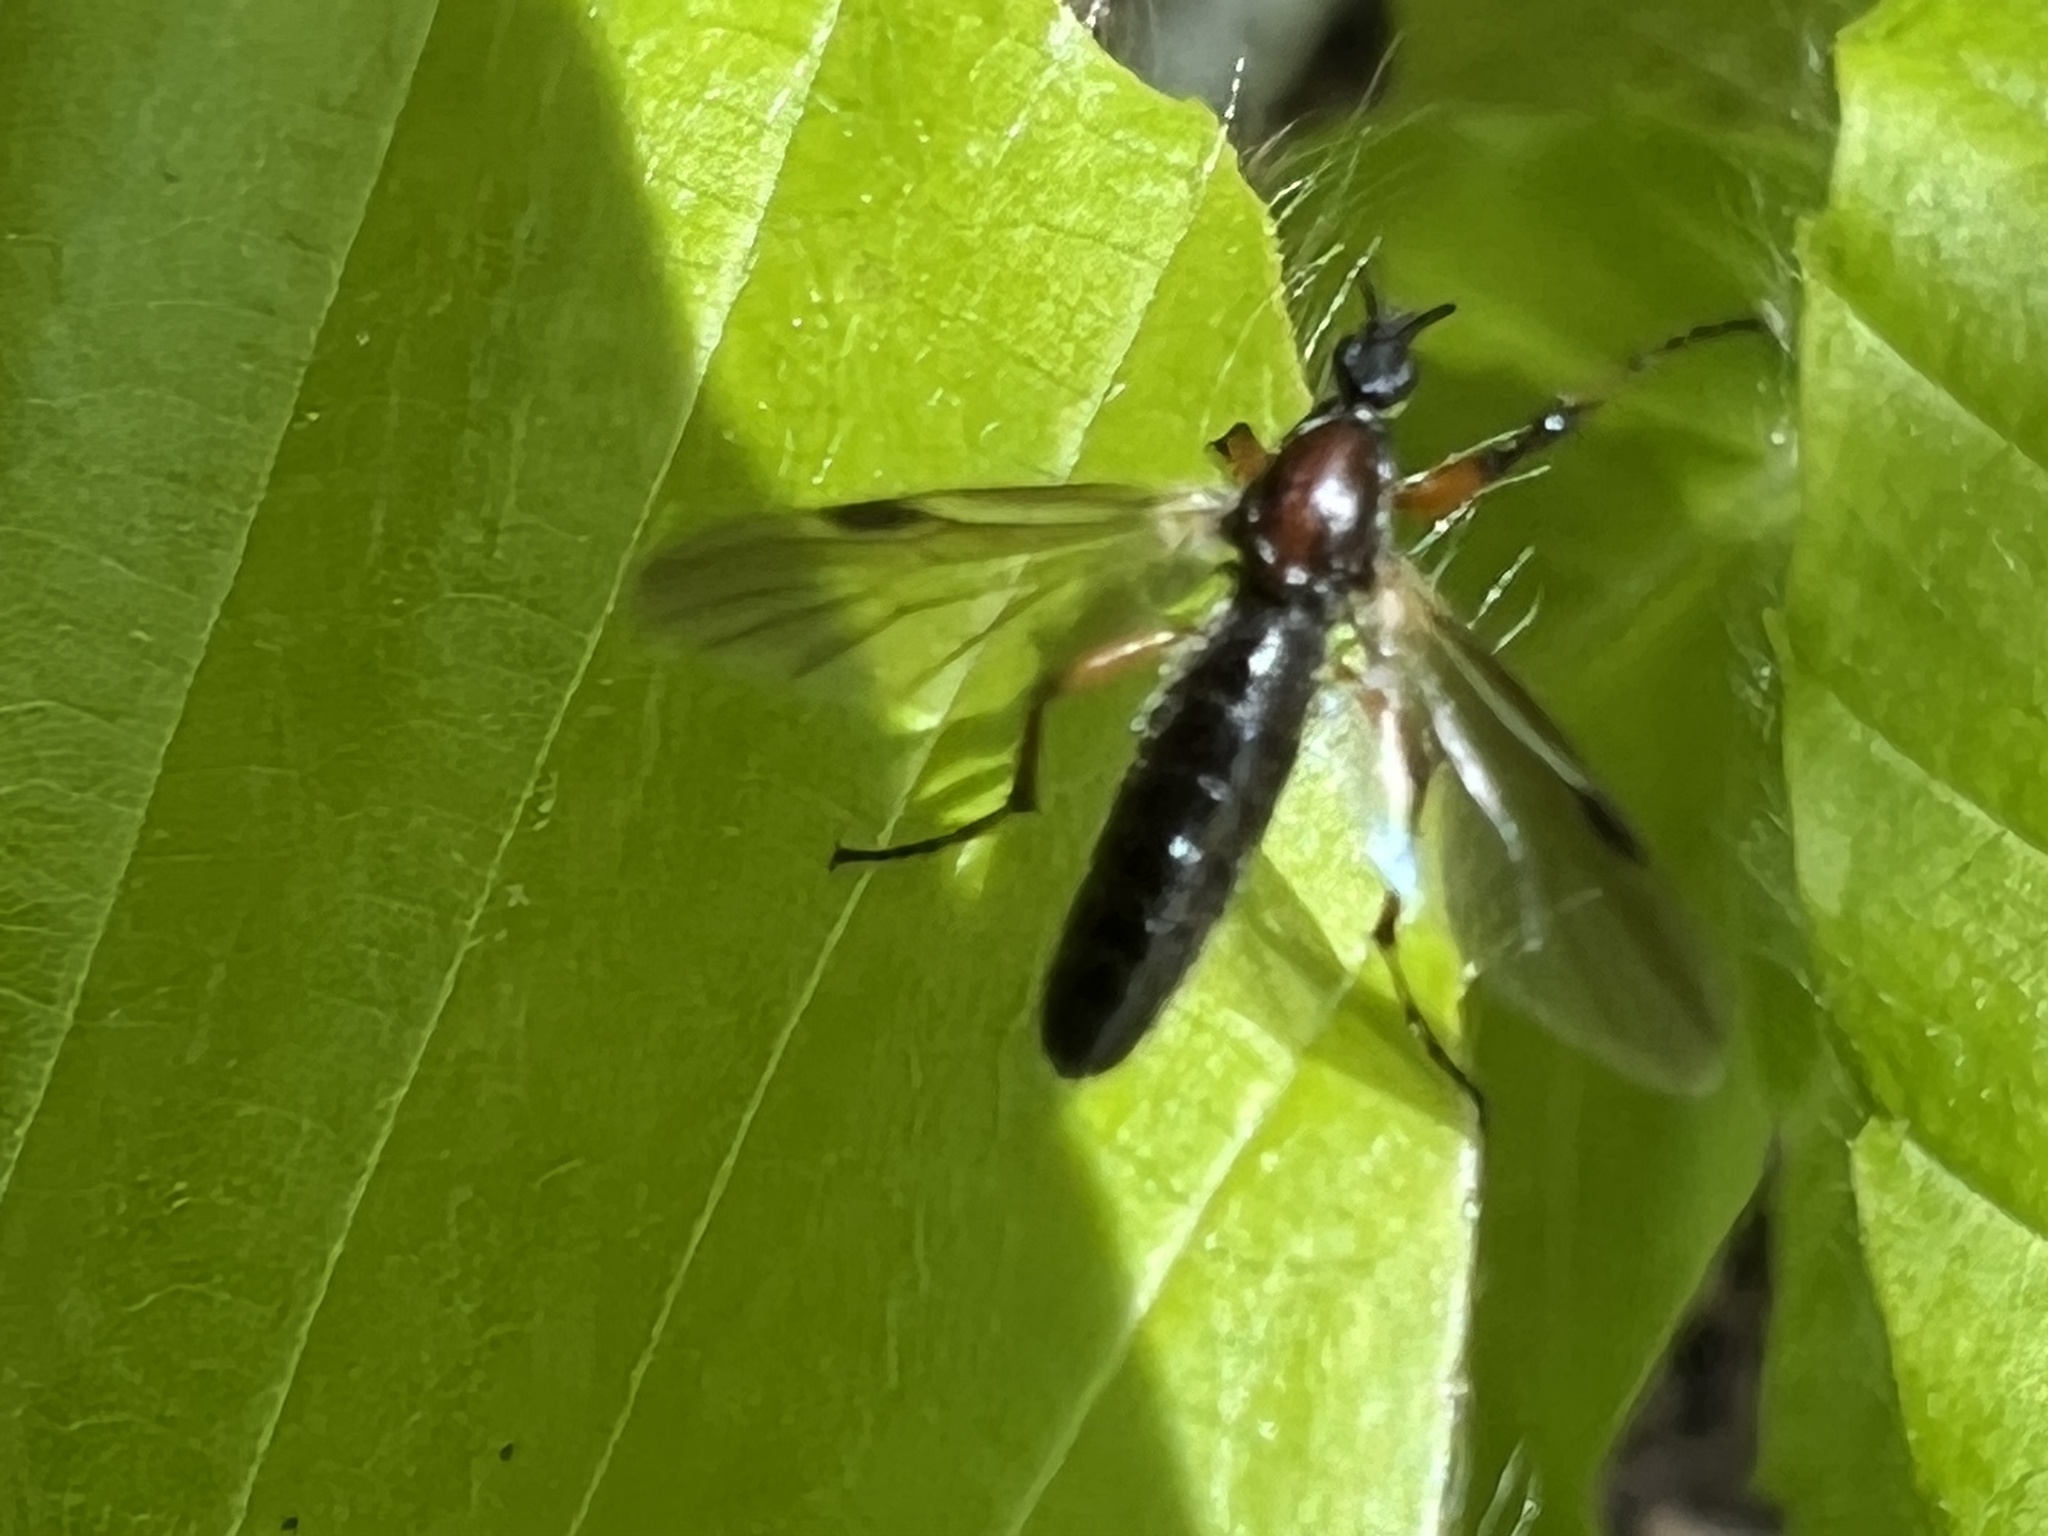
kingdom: Animalia
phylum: Arthropoda
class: Insecta
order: Diptera
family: Bibionidae
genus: Bibio
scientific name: Bibio articulatus
